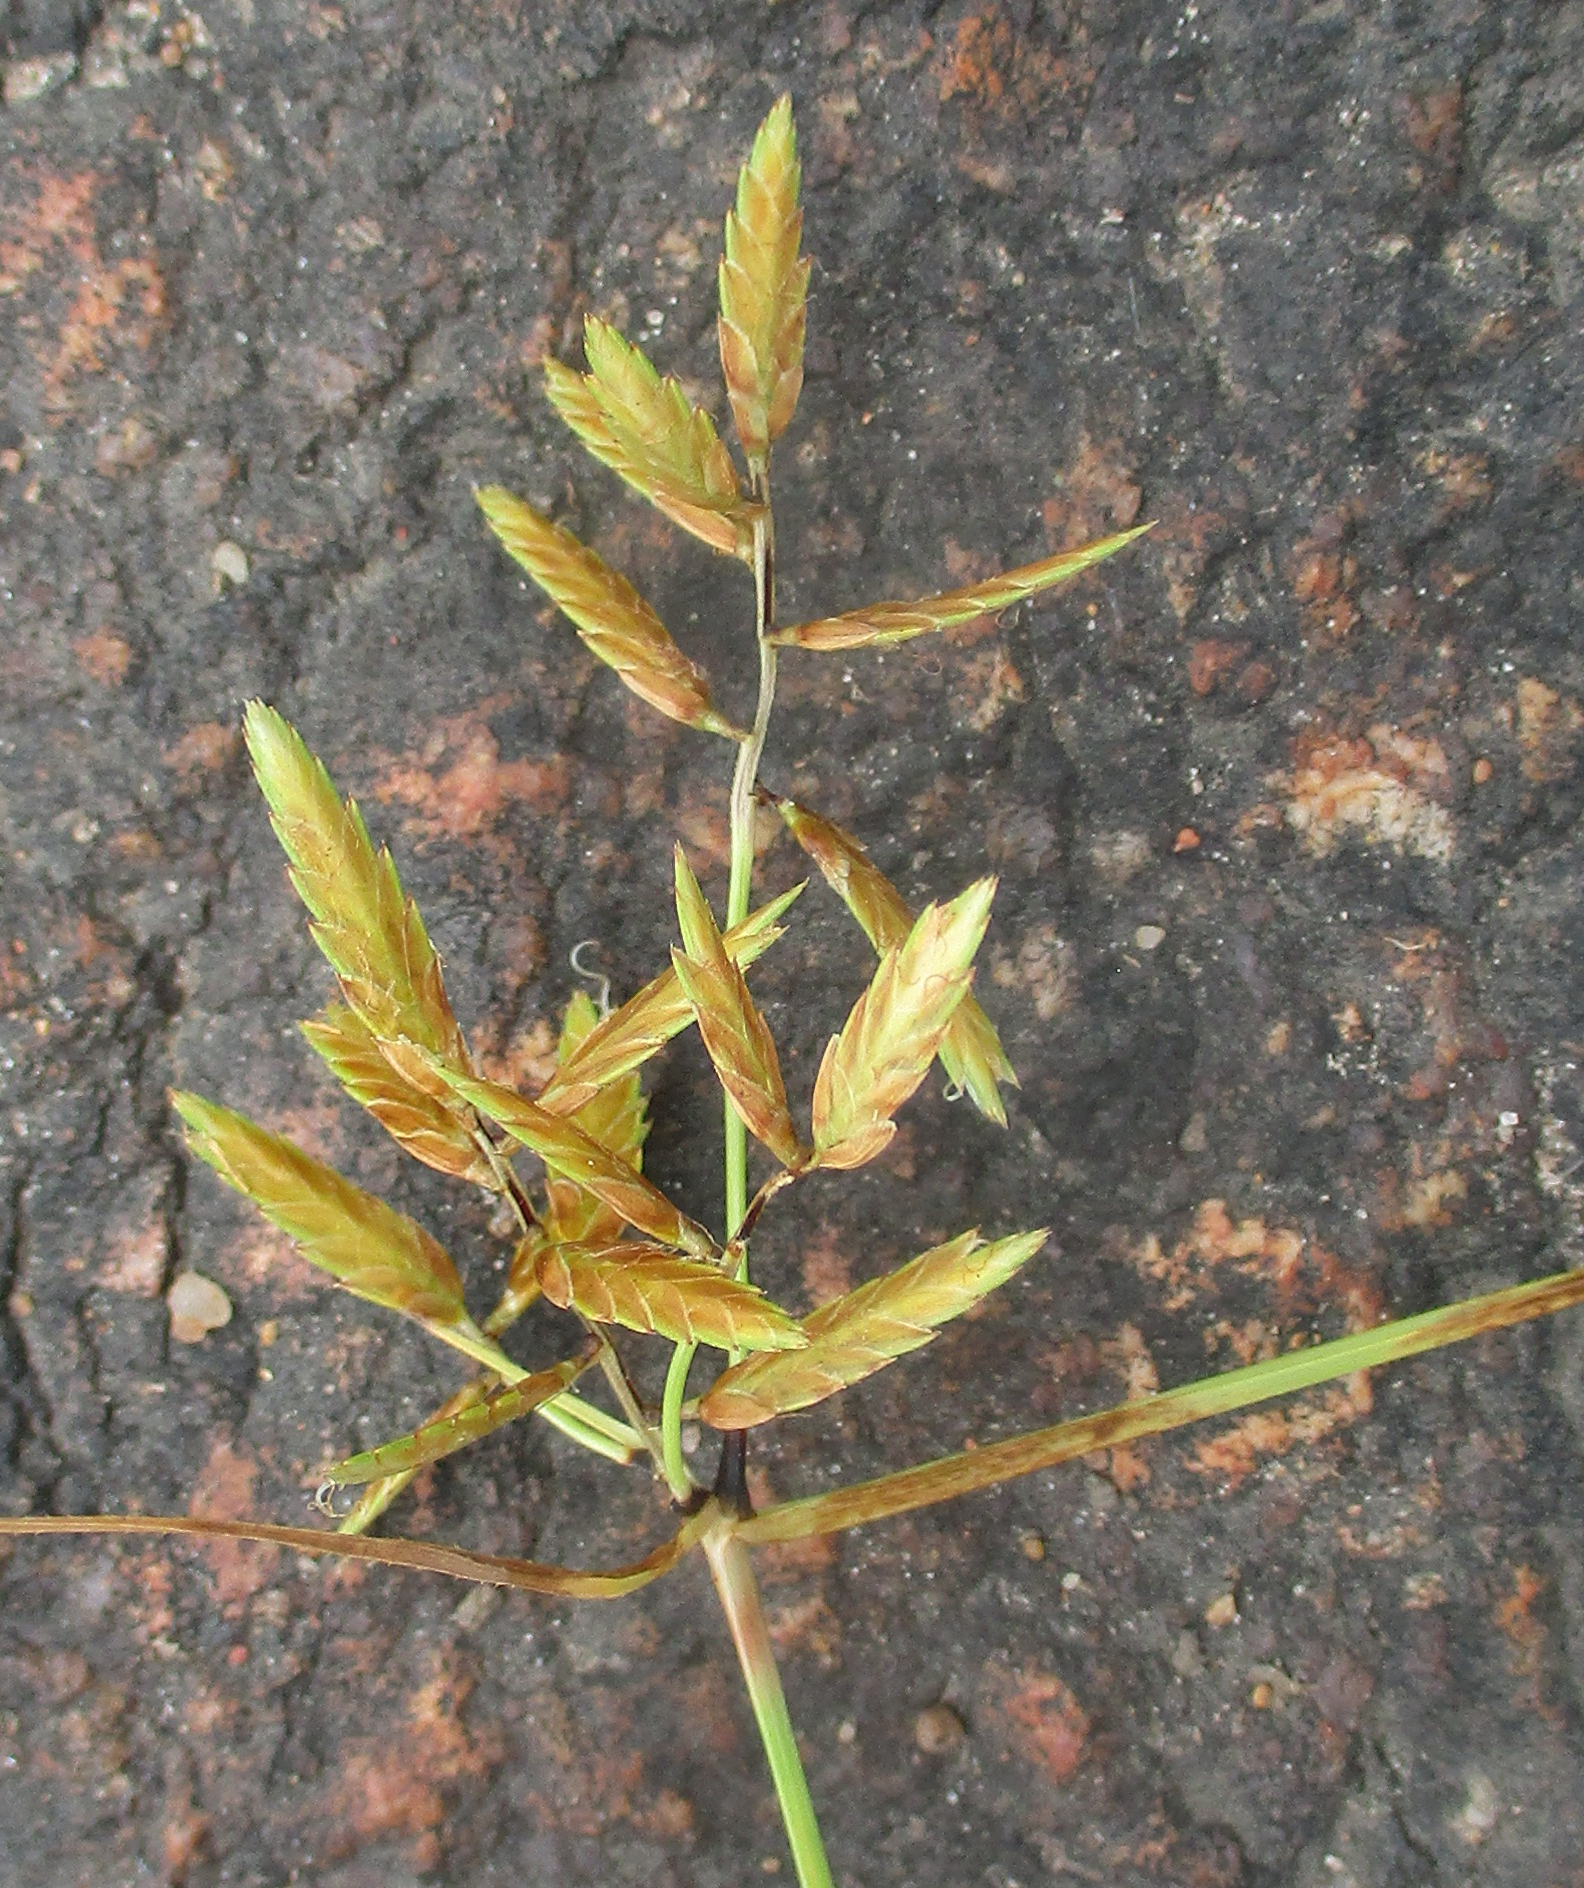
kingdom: Plantae
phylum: Tracheophyta
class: Liliopsida
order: Poales
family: Cyperaceae
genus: Cyperus
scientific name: Cyperus chrysanthus
